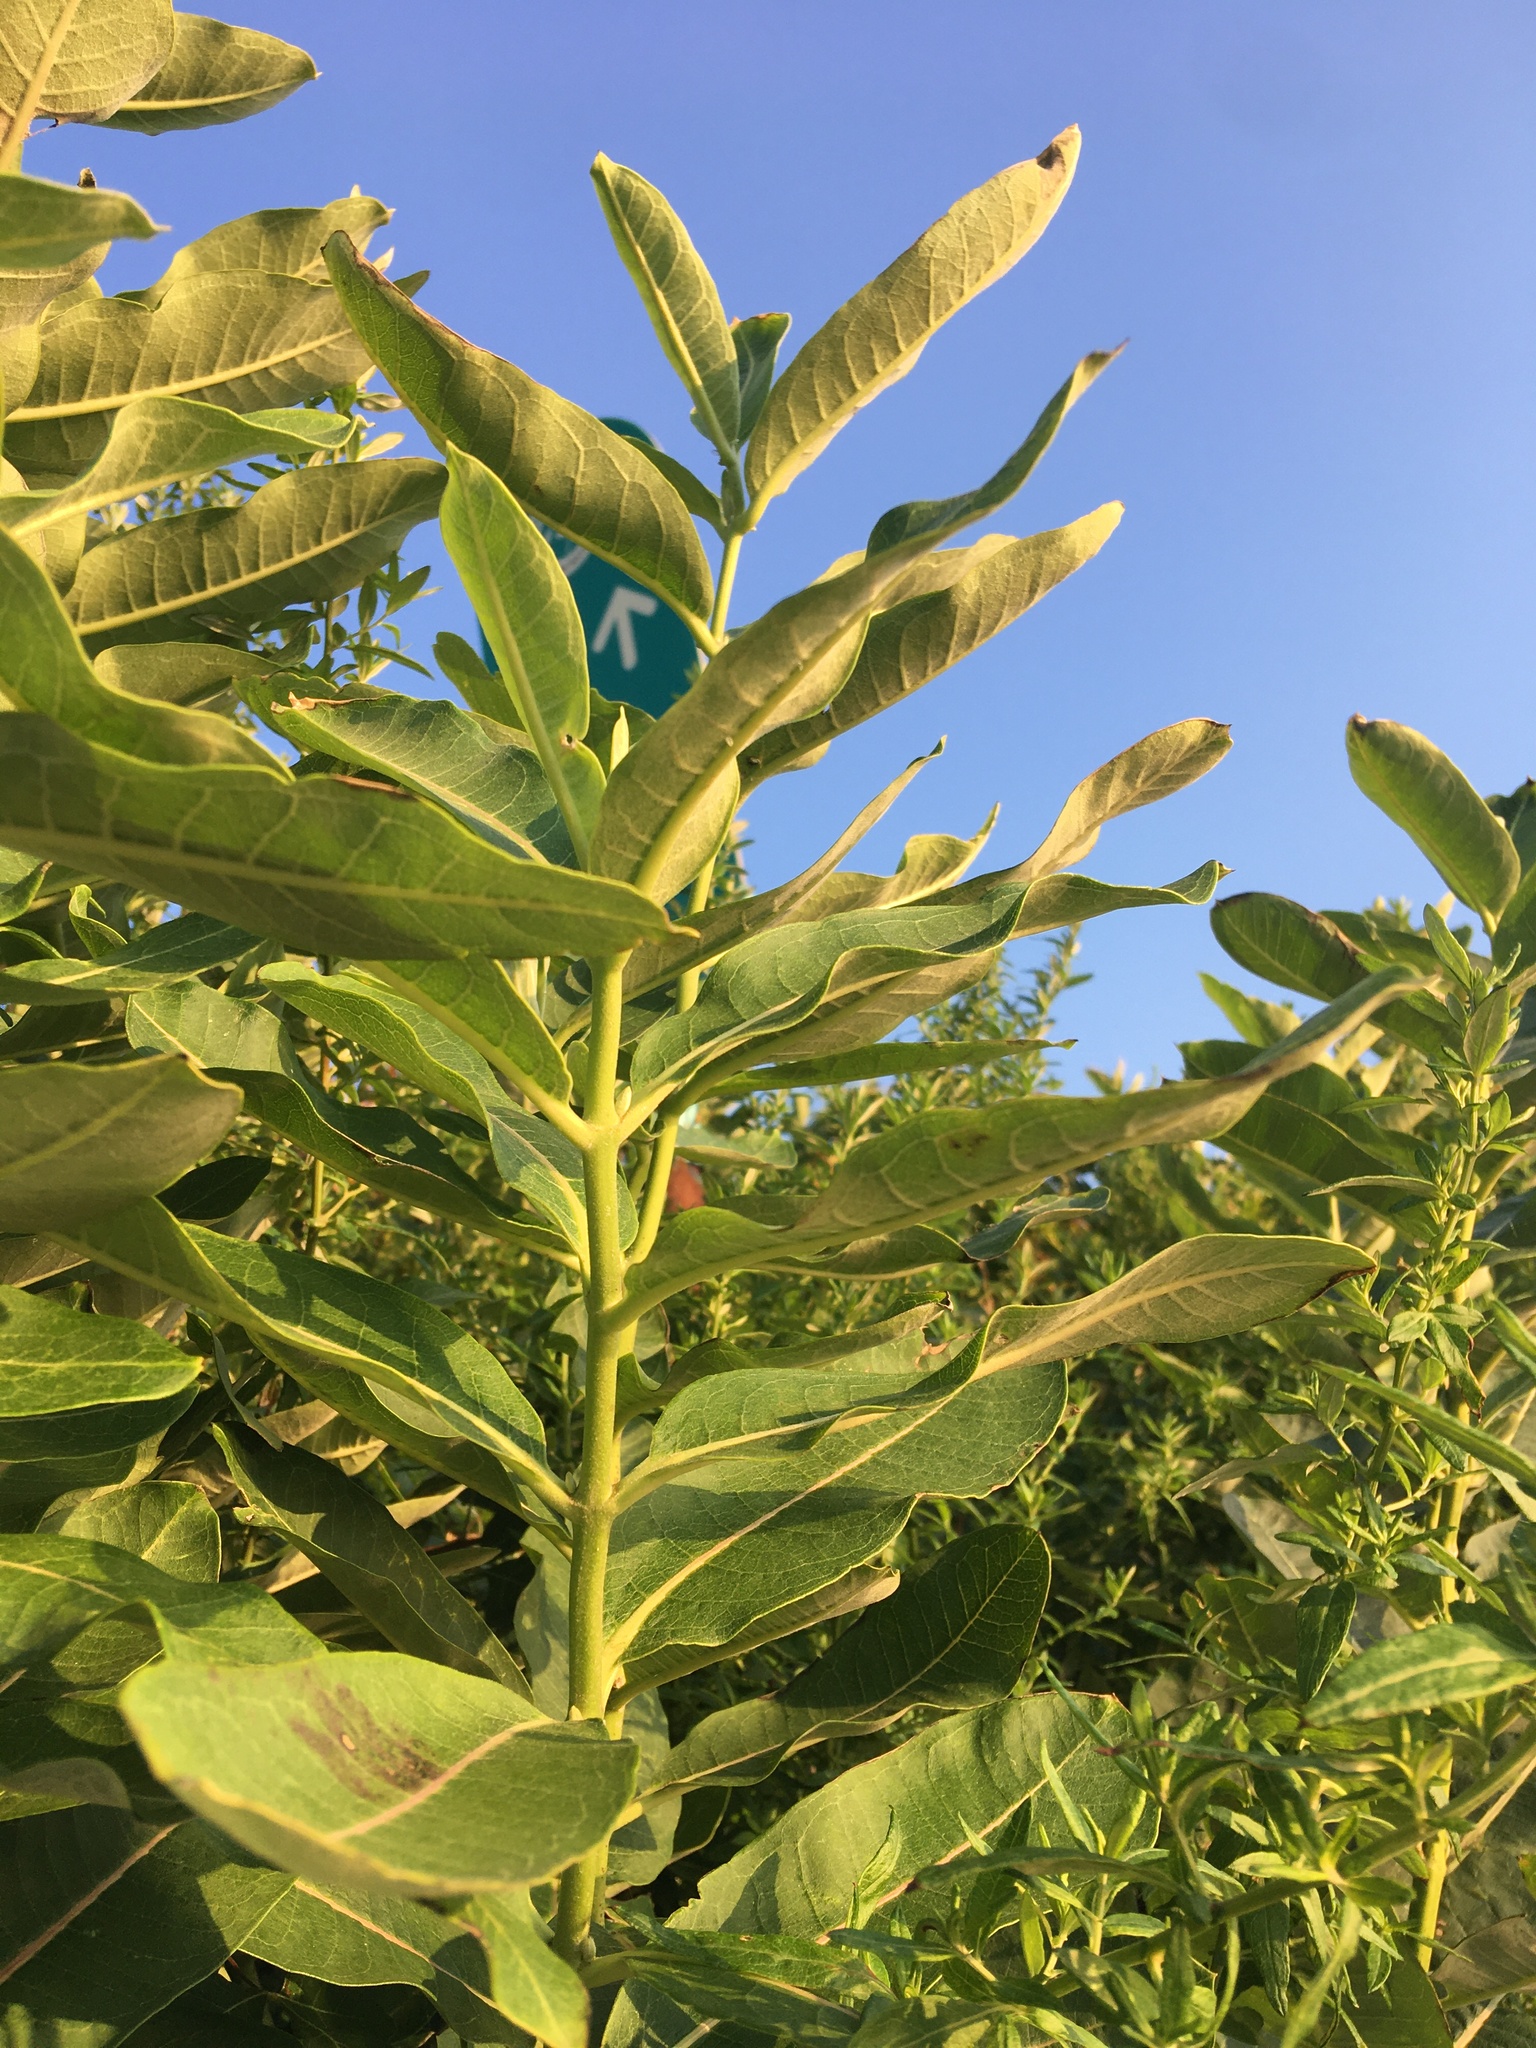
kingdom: Plantae
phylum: Tracheophyta
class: Magnoliopsida
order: Gentianales
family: Apocynaceae
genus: Asclepias
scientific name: Asclepias syriaca
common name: Common milkweed
